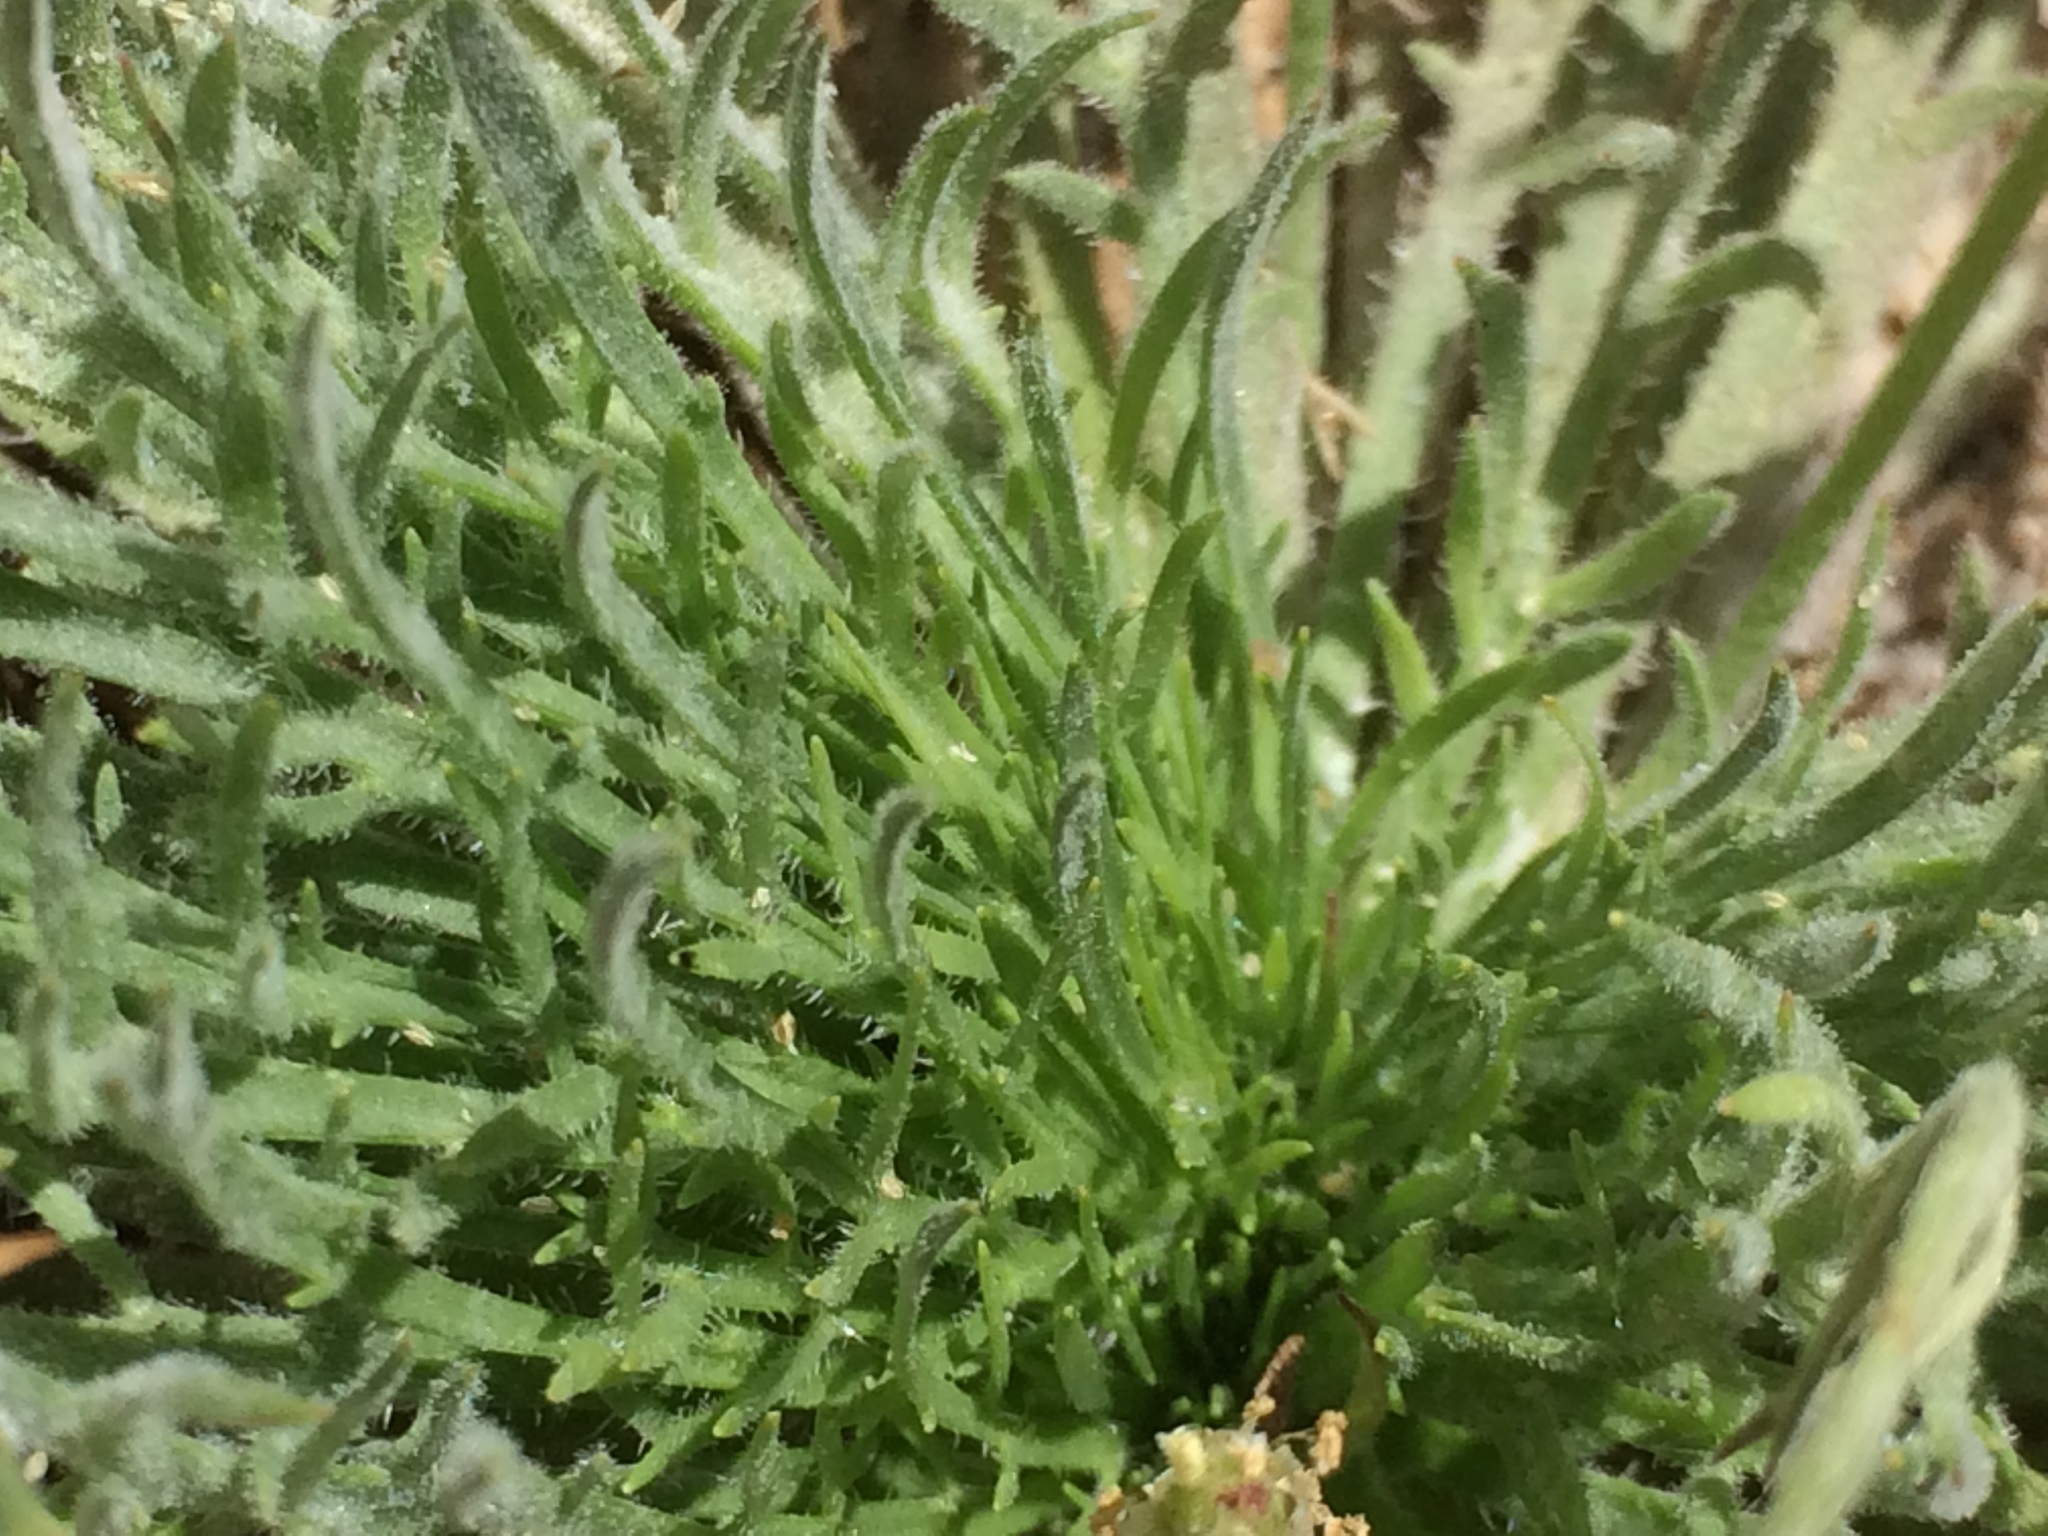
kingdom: Plantae
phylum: Tracheophyta
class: Magnoliopsida
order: Lamiales
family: Plantaginaceae
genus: Plantago
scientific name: Plantago coronopus
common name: Buck's-horn plantain
